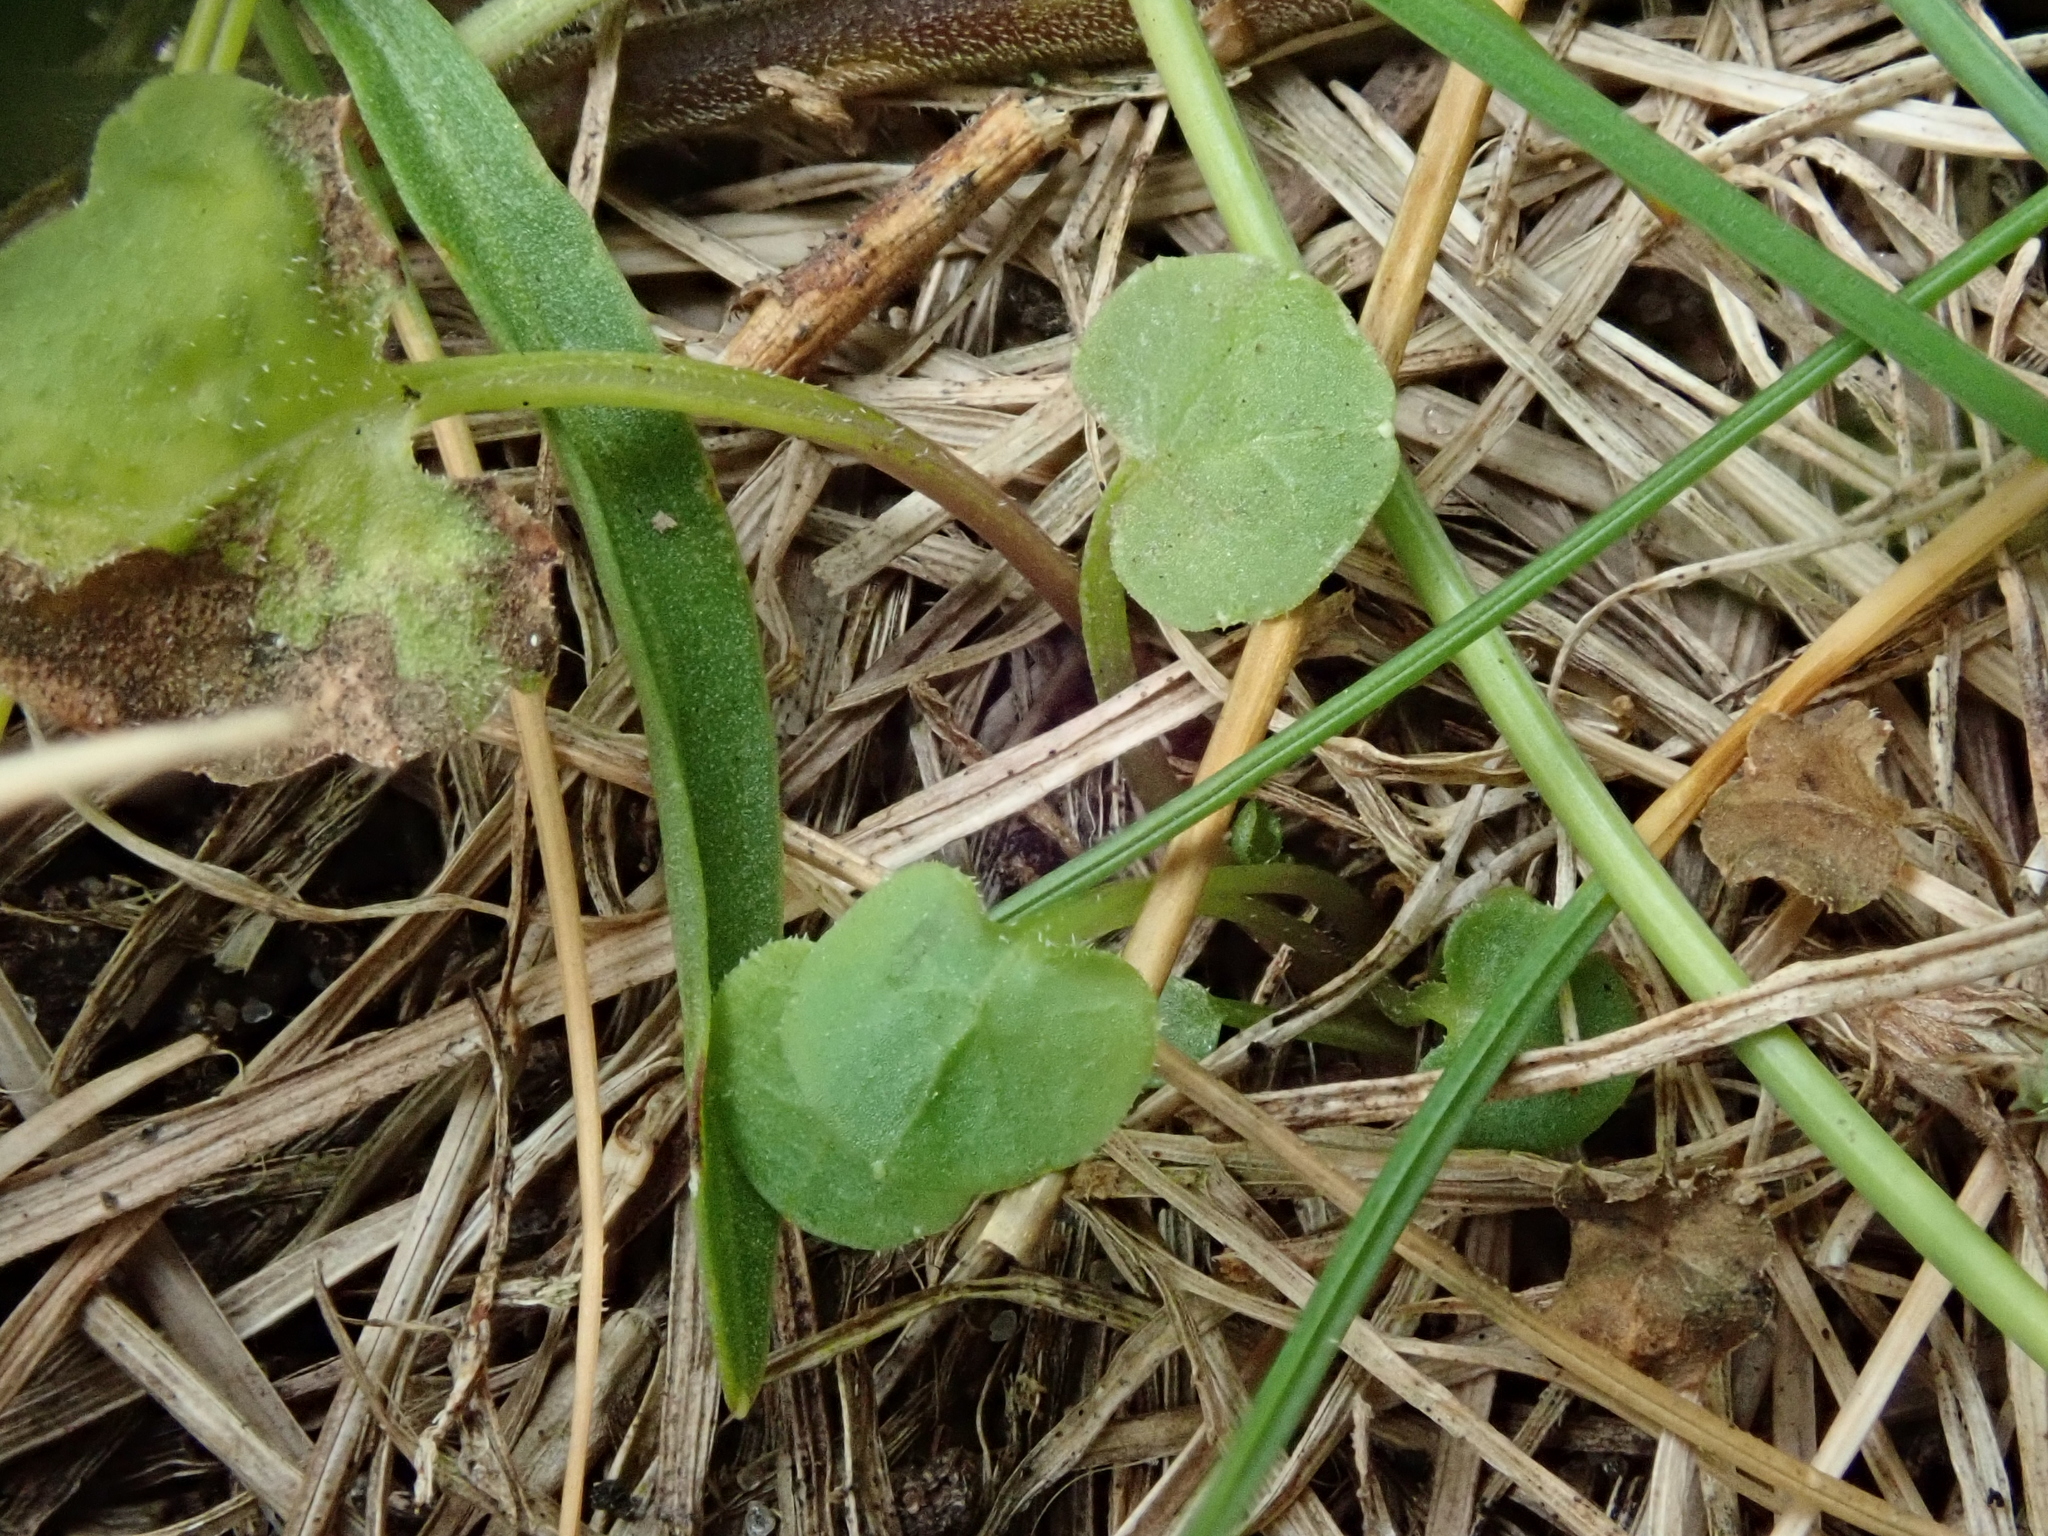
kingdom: Plantae
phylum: Tracheophyta
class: Magnoliopsida
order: Asterales
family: Campanulaceae
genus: Campanula
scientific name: Campanula rotundifolia
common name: Harebell
